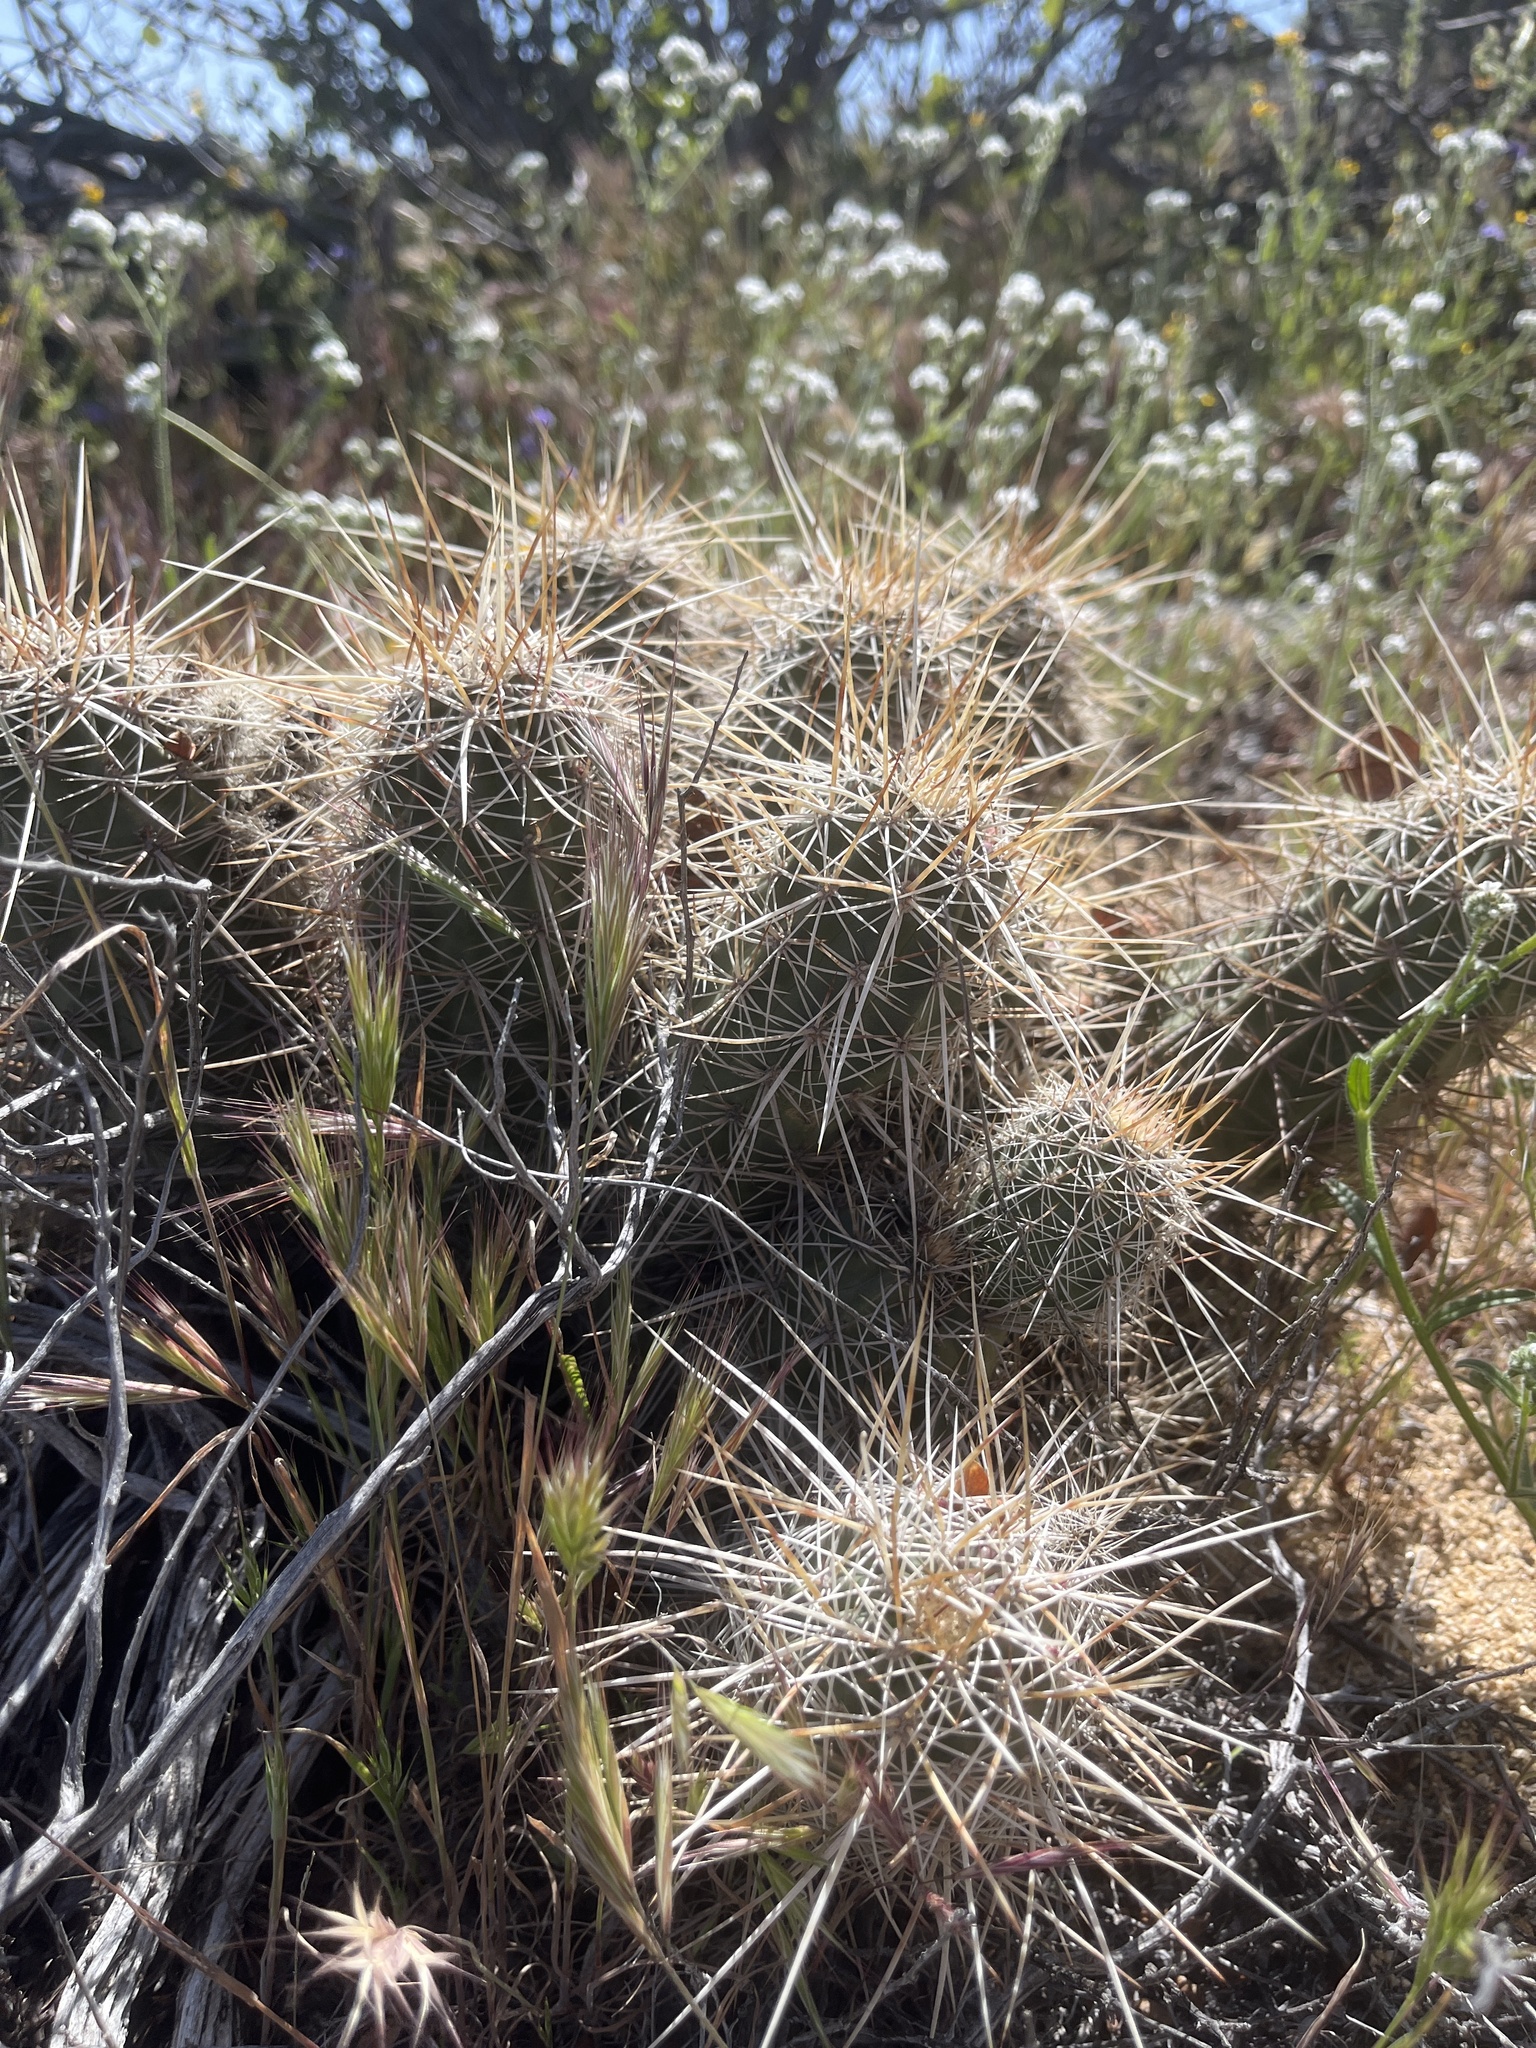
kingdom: Plantae
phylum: Tracheophyta
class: Magnoliopsida
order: Caryophyllales
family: Cactaceae
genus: Echinocereus
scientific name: Echinocereus engelmannii
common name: Engelmann's hedgehog cactus
